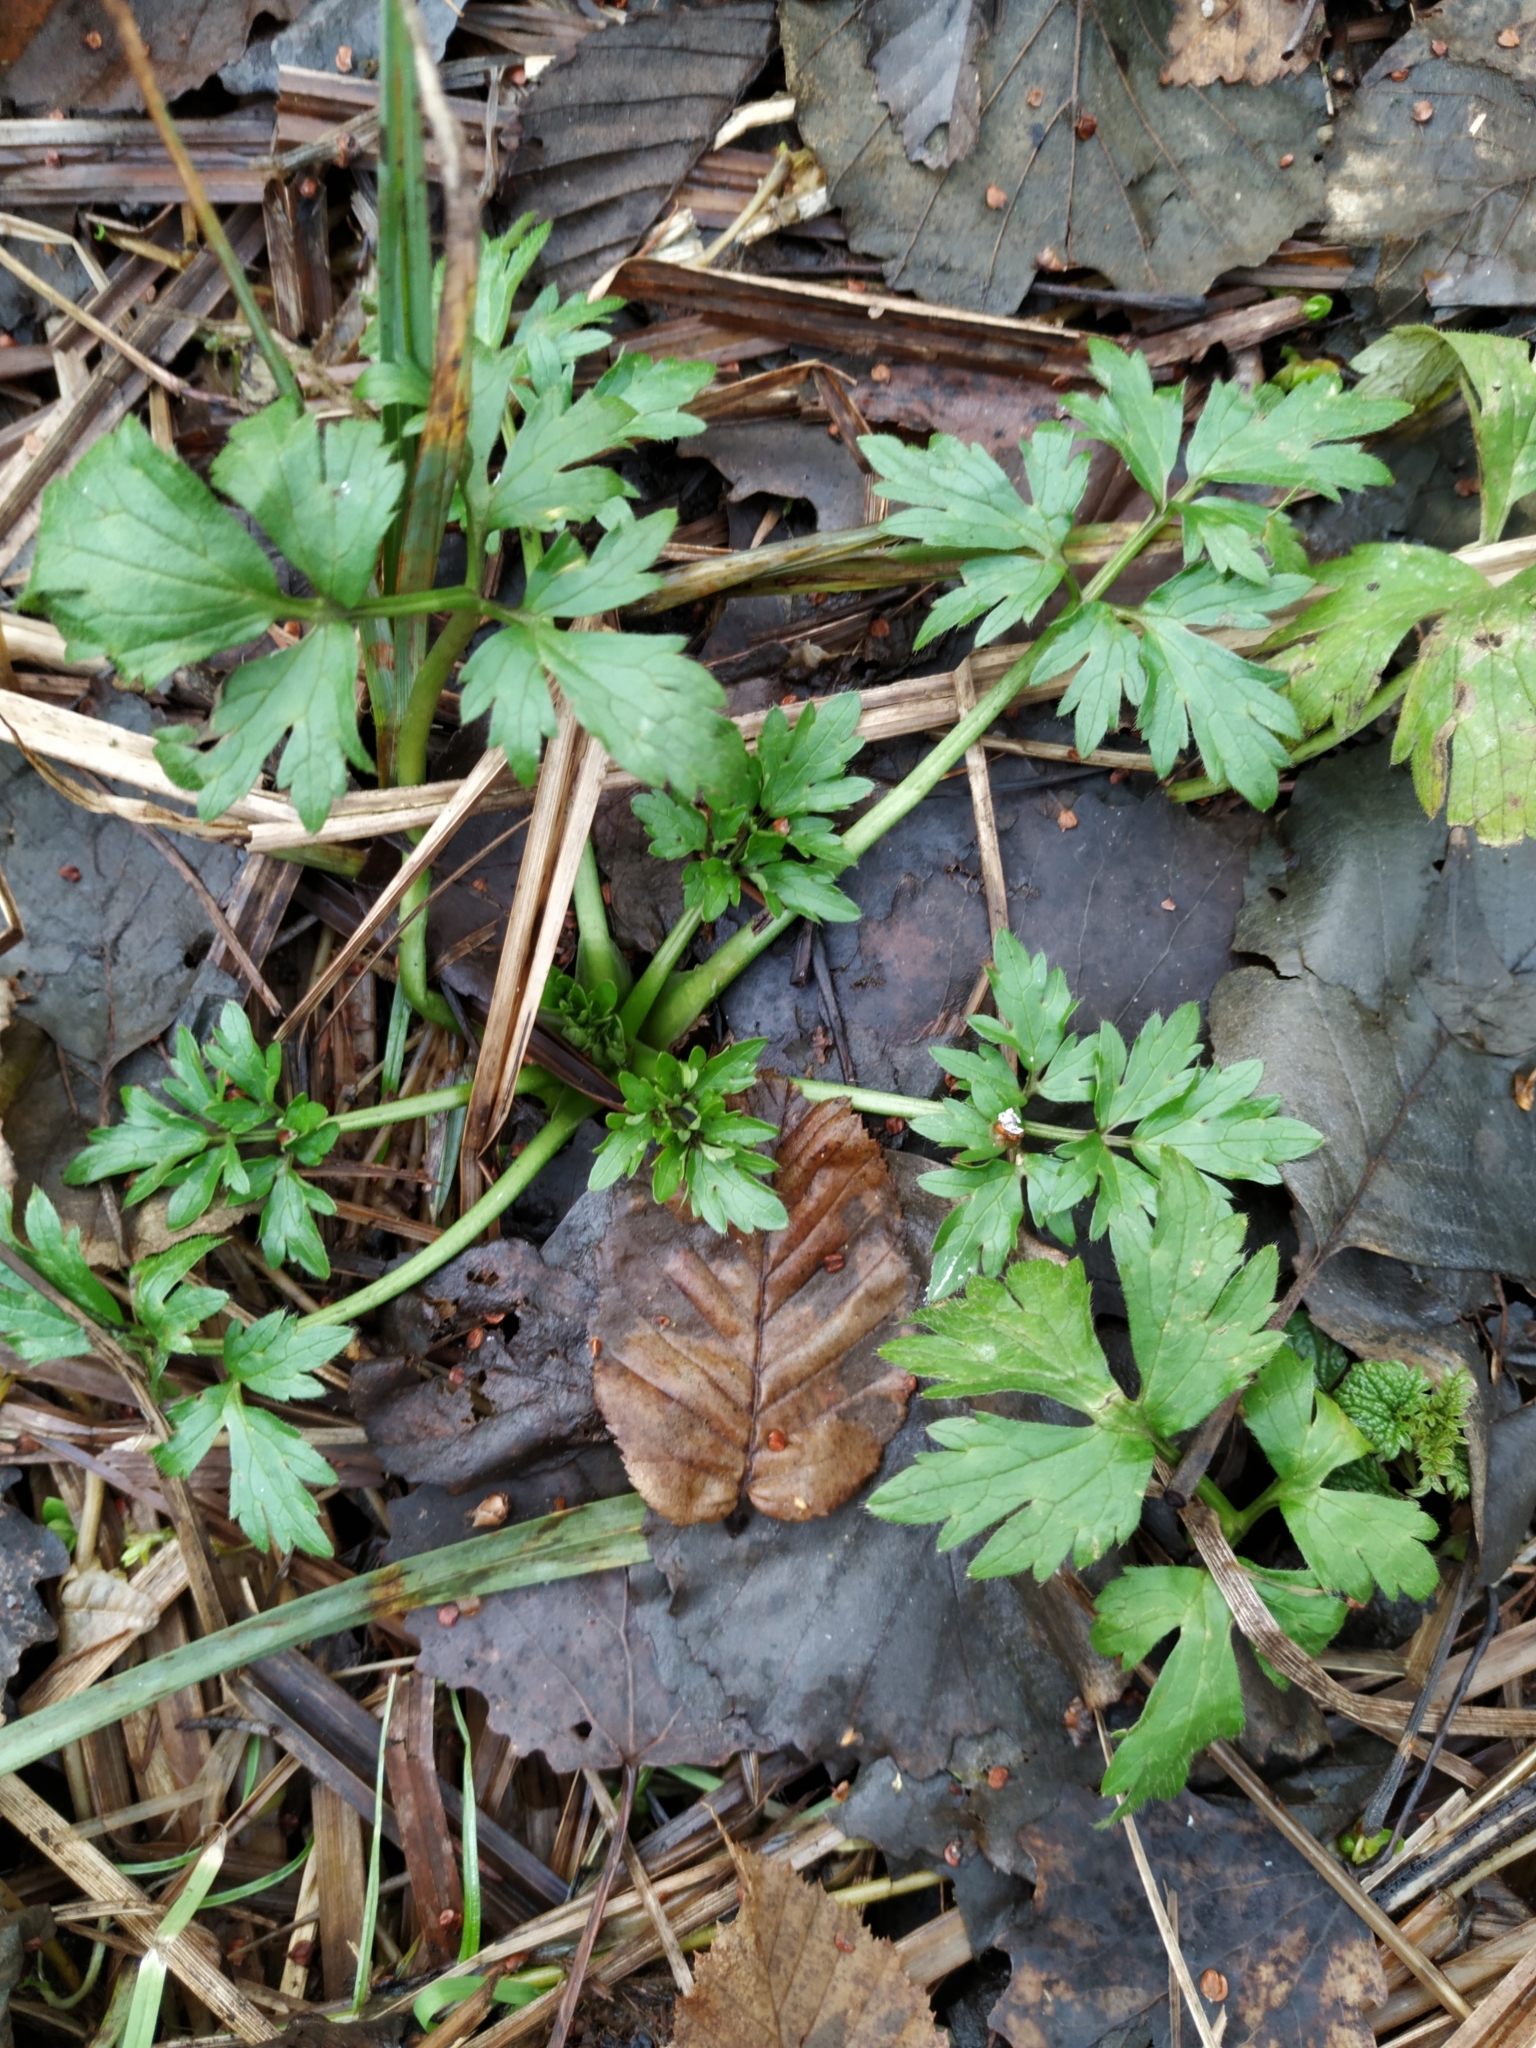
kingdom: Plantae
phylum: Tracheophyta
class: Magnoliopsida
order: Ranunculales
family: Ranunculaceae
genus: Ranunculus
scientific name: Ranunculus repens
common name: Creeping buttercup
